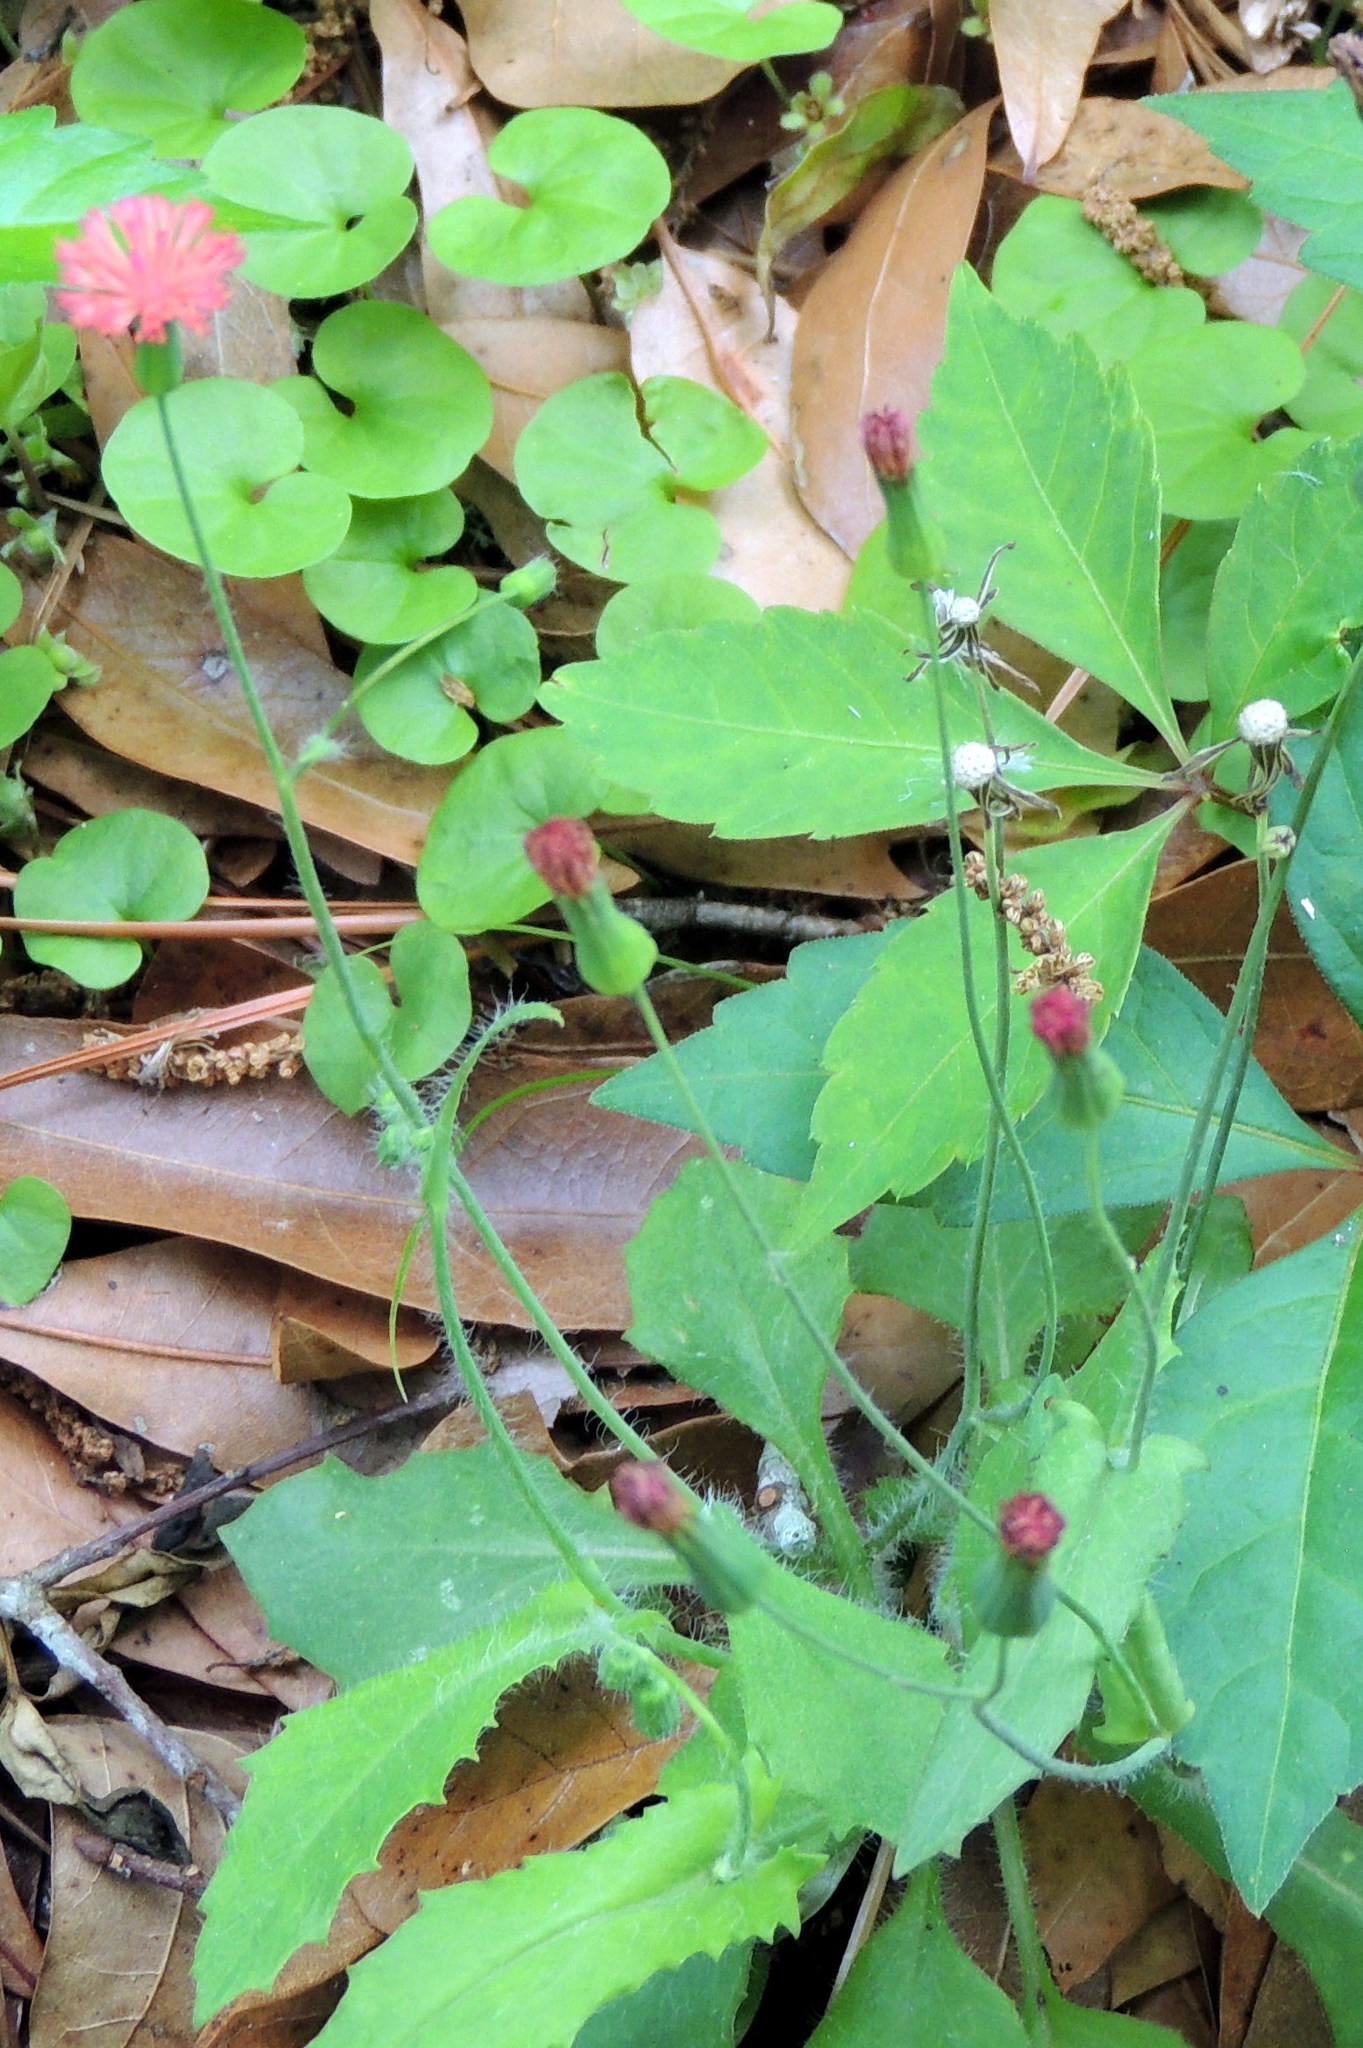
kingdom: Plantae
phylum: Tracheophyta
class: Magnoliopsida
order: Asterales
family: Asteraceae
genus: Emilia
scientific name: Emilia fosbergii
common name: Florida tasselflower
